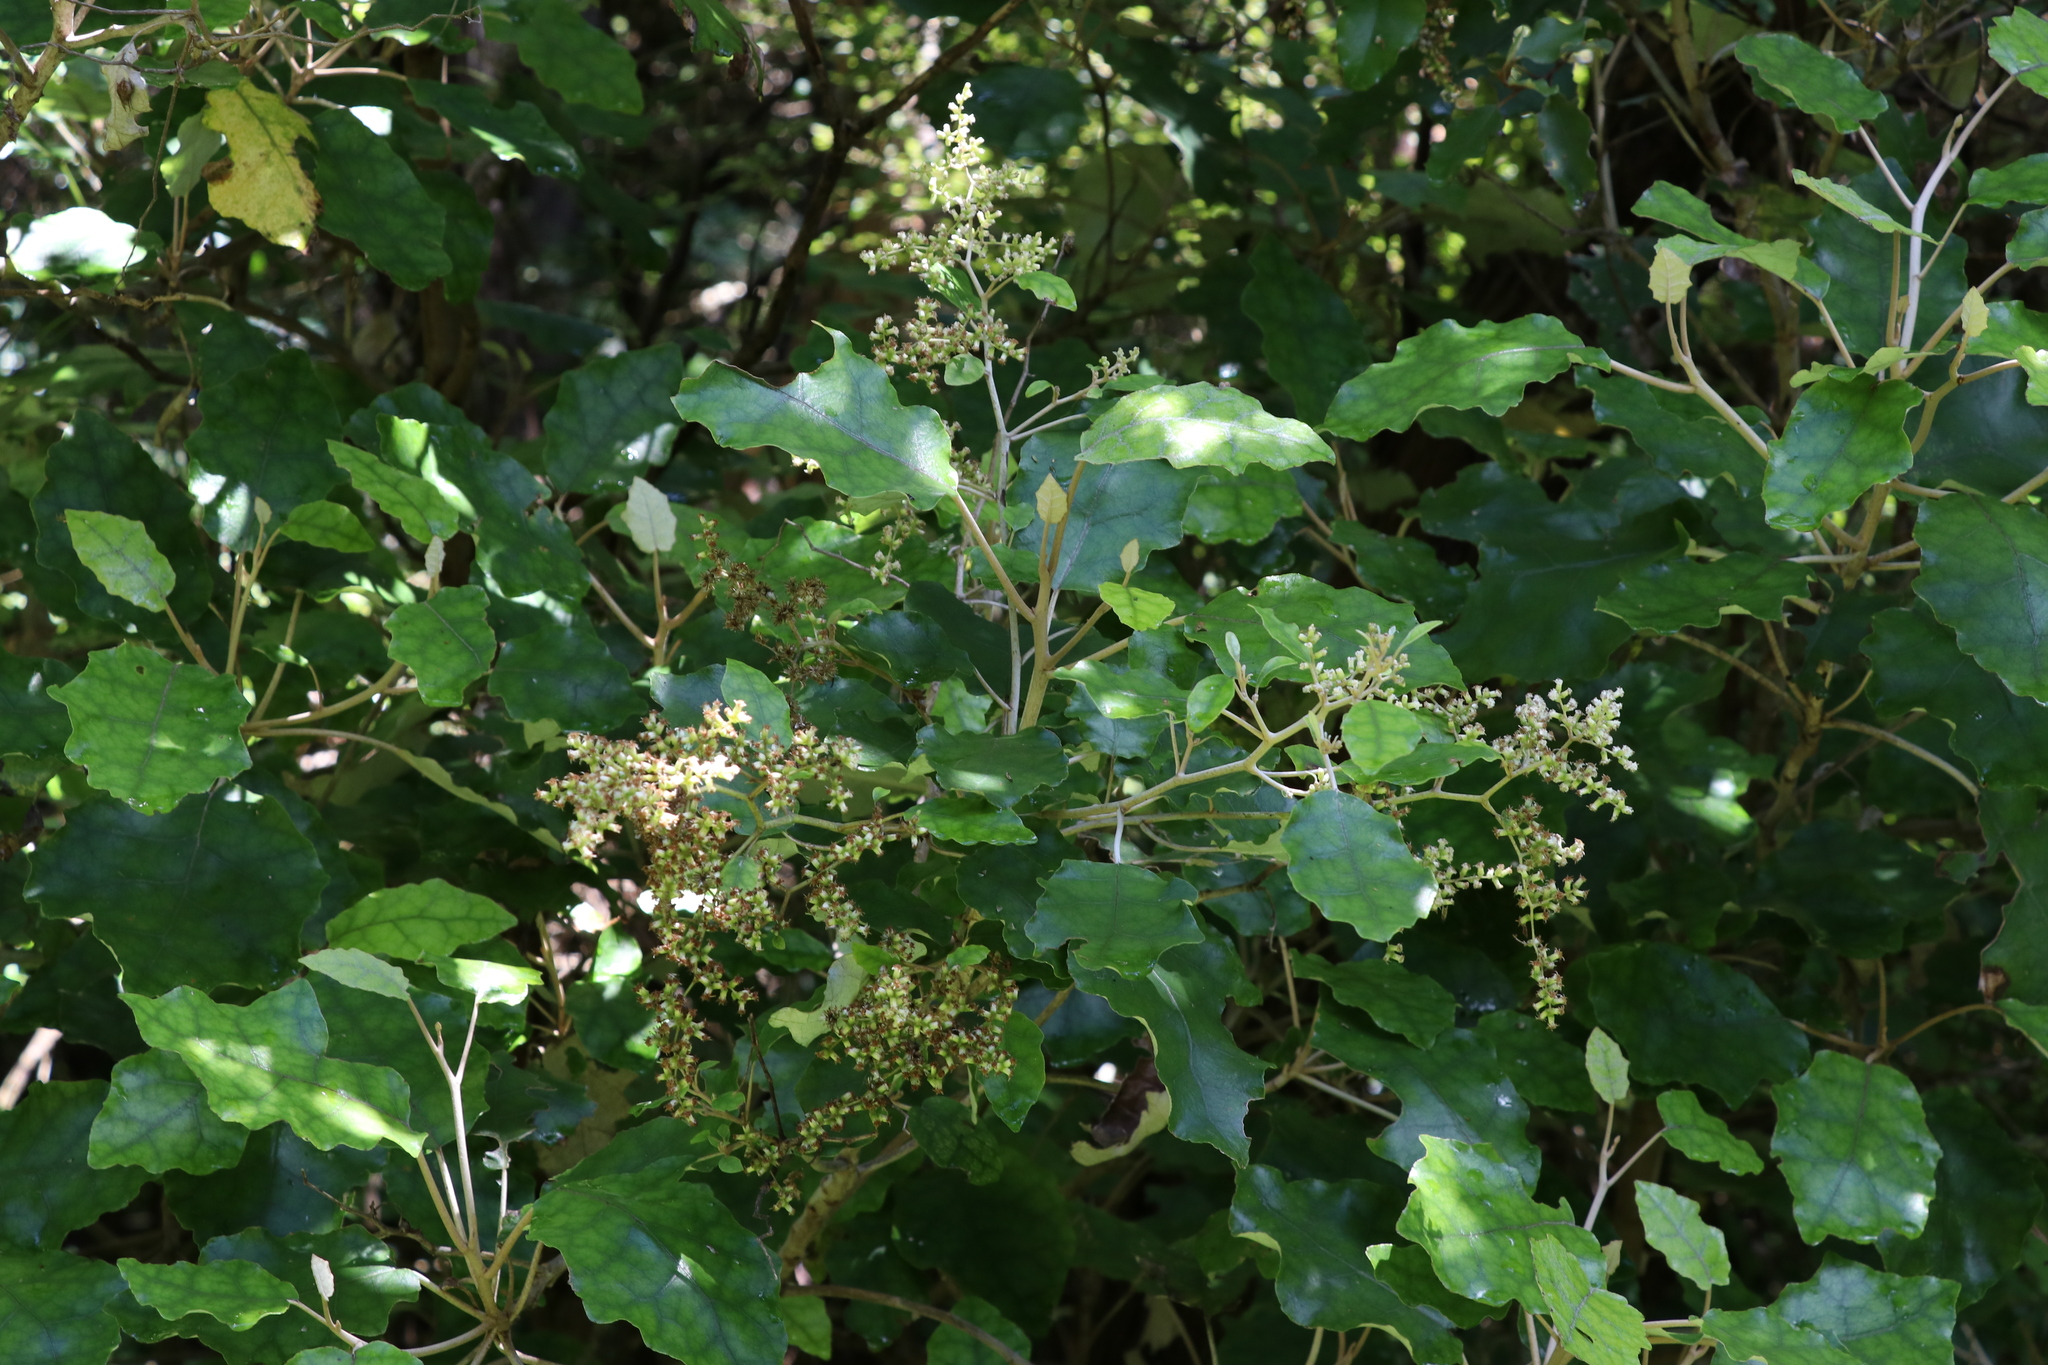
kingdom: Plantae
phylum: Tracheophyta
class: Magnoliopsida
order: Asterales
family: Asteraceae
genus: Brachyglottis
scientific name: Brachyglottis repanda
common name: Hedge ragwort
